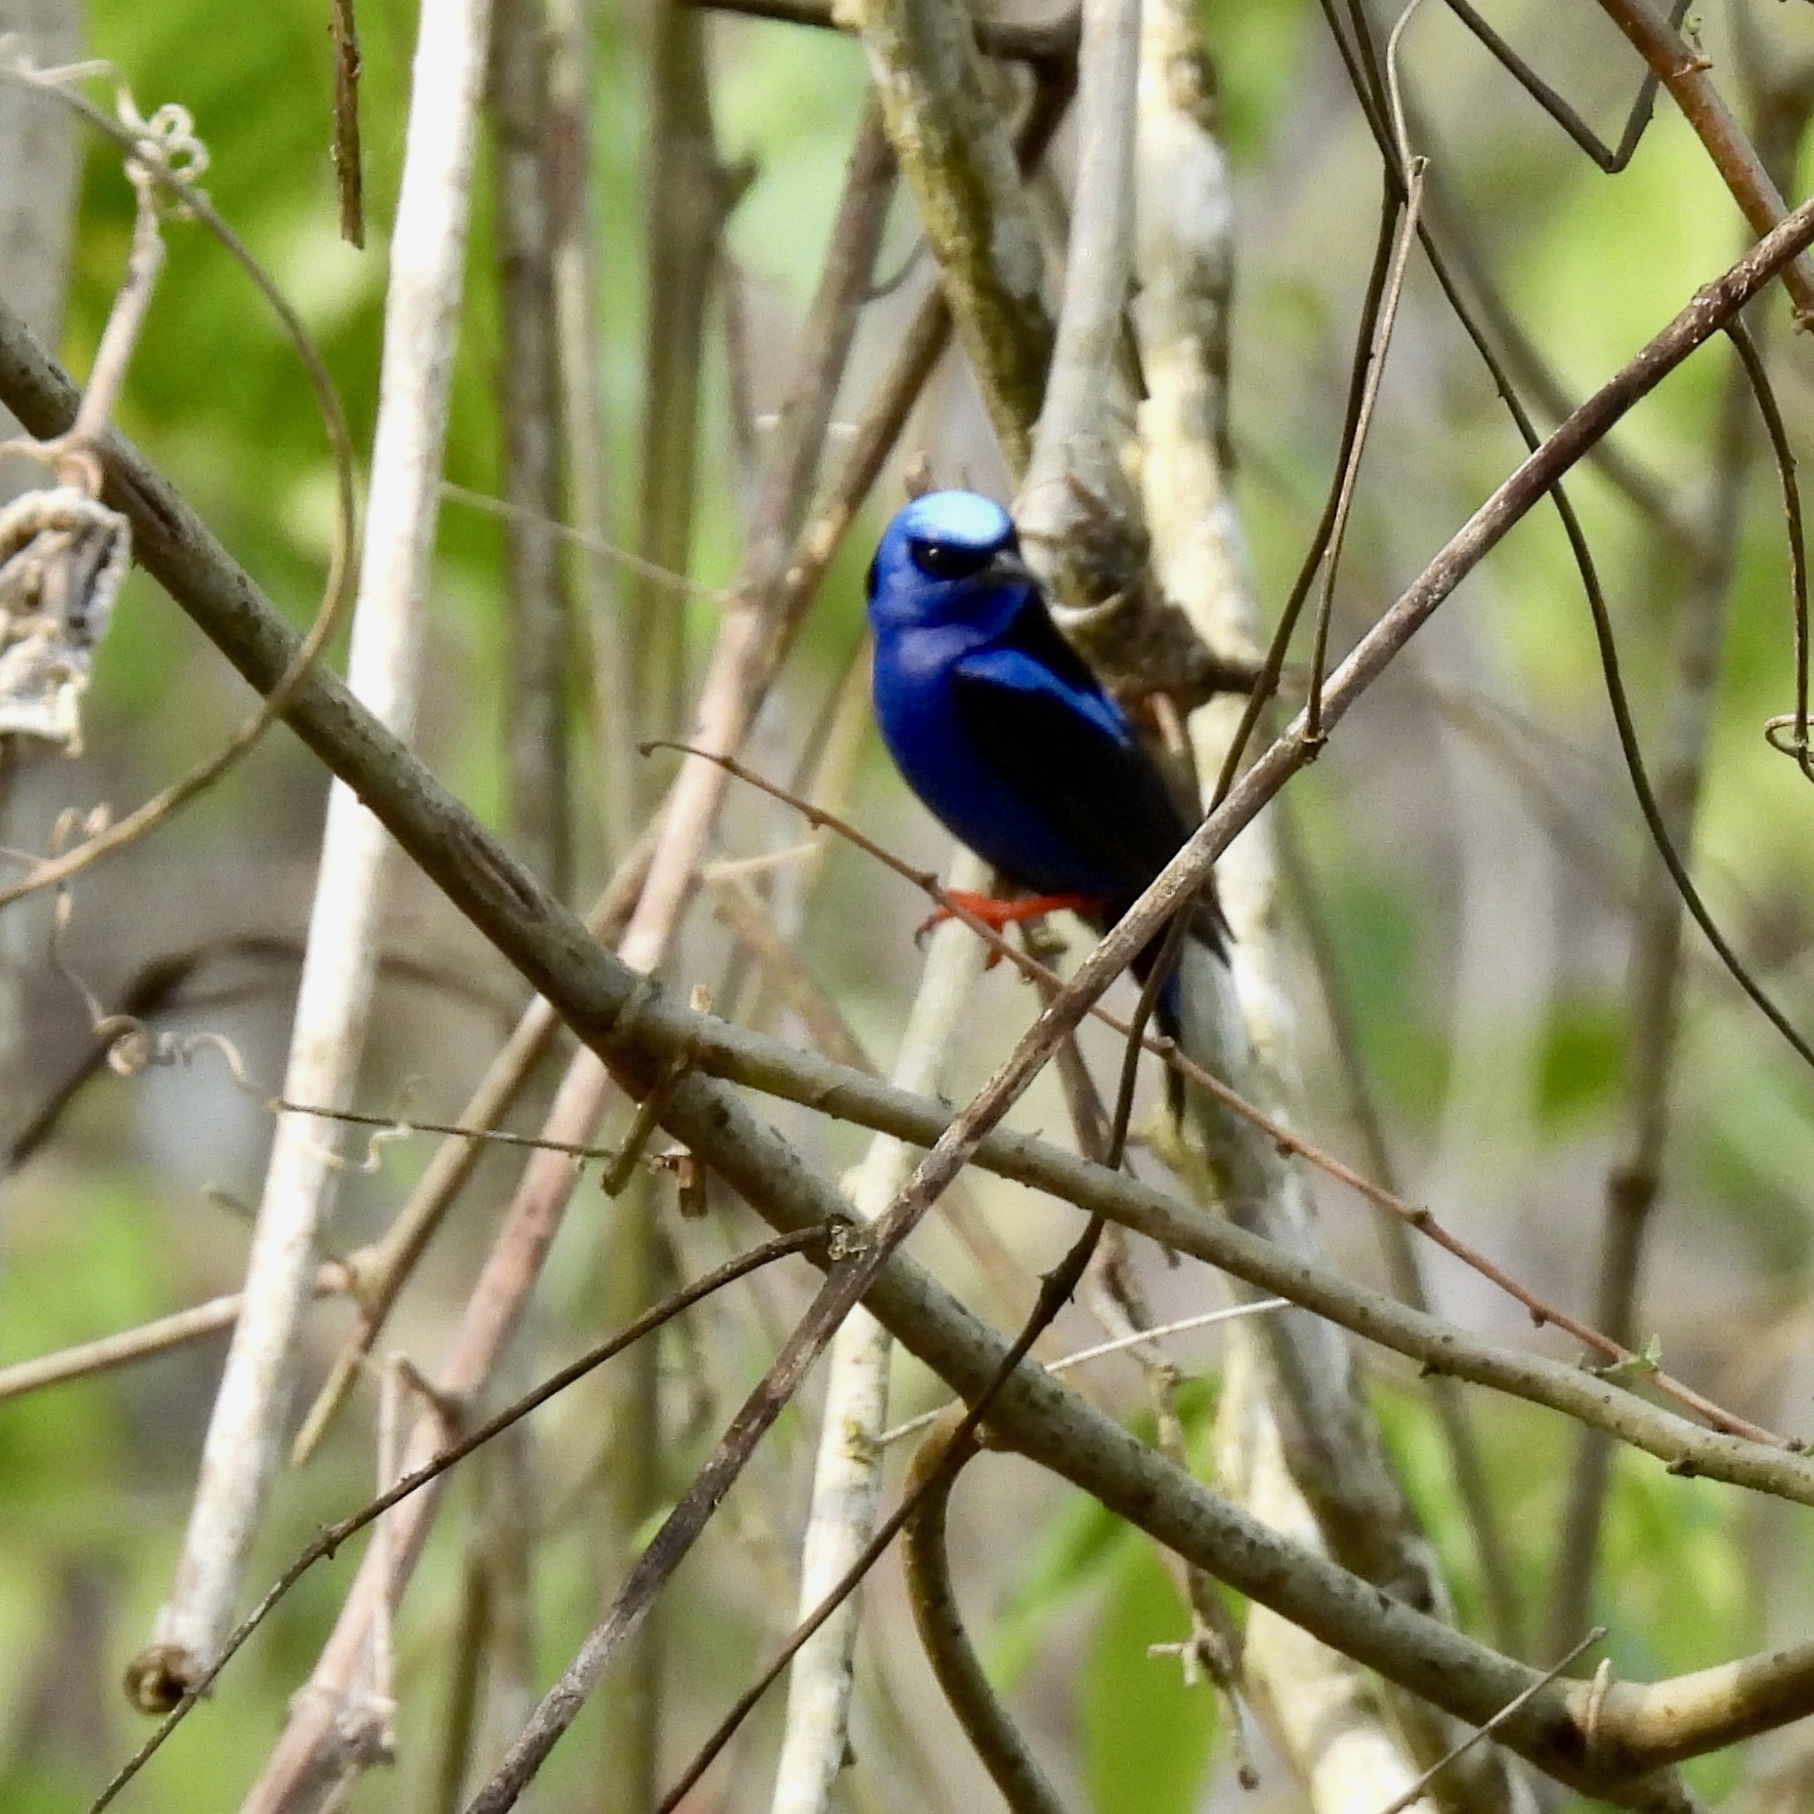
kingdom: Animalia
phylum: Chordata
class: Aves
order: Passeriformes
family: Thraupidae
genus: Cyanerpes
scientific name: Cyanerpes cyaneus
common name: Red-legged honeycreeper
